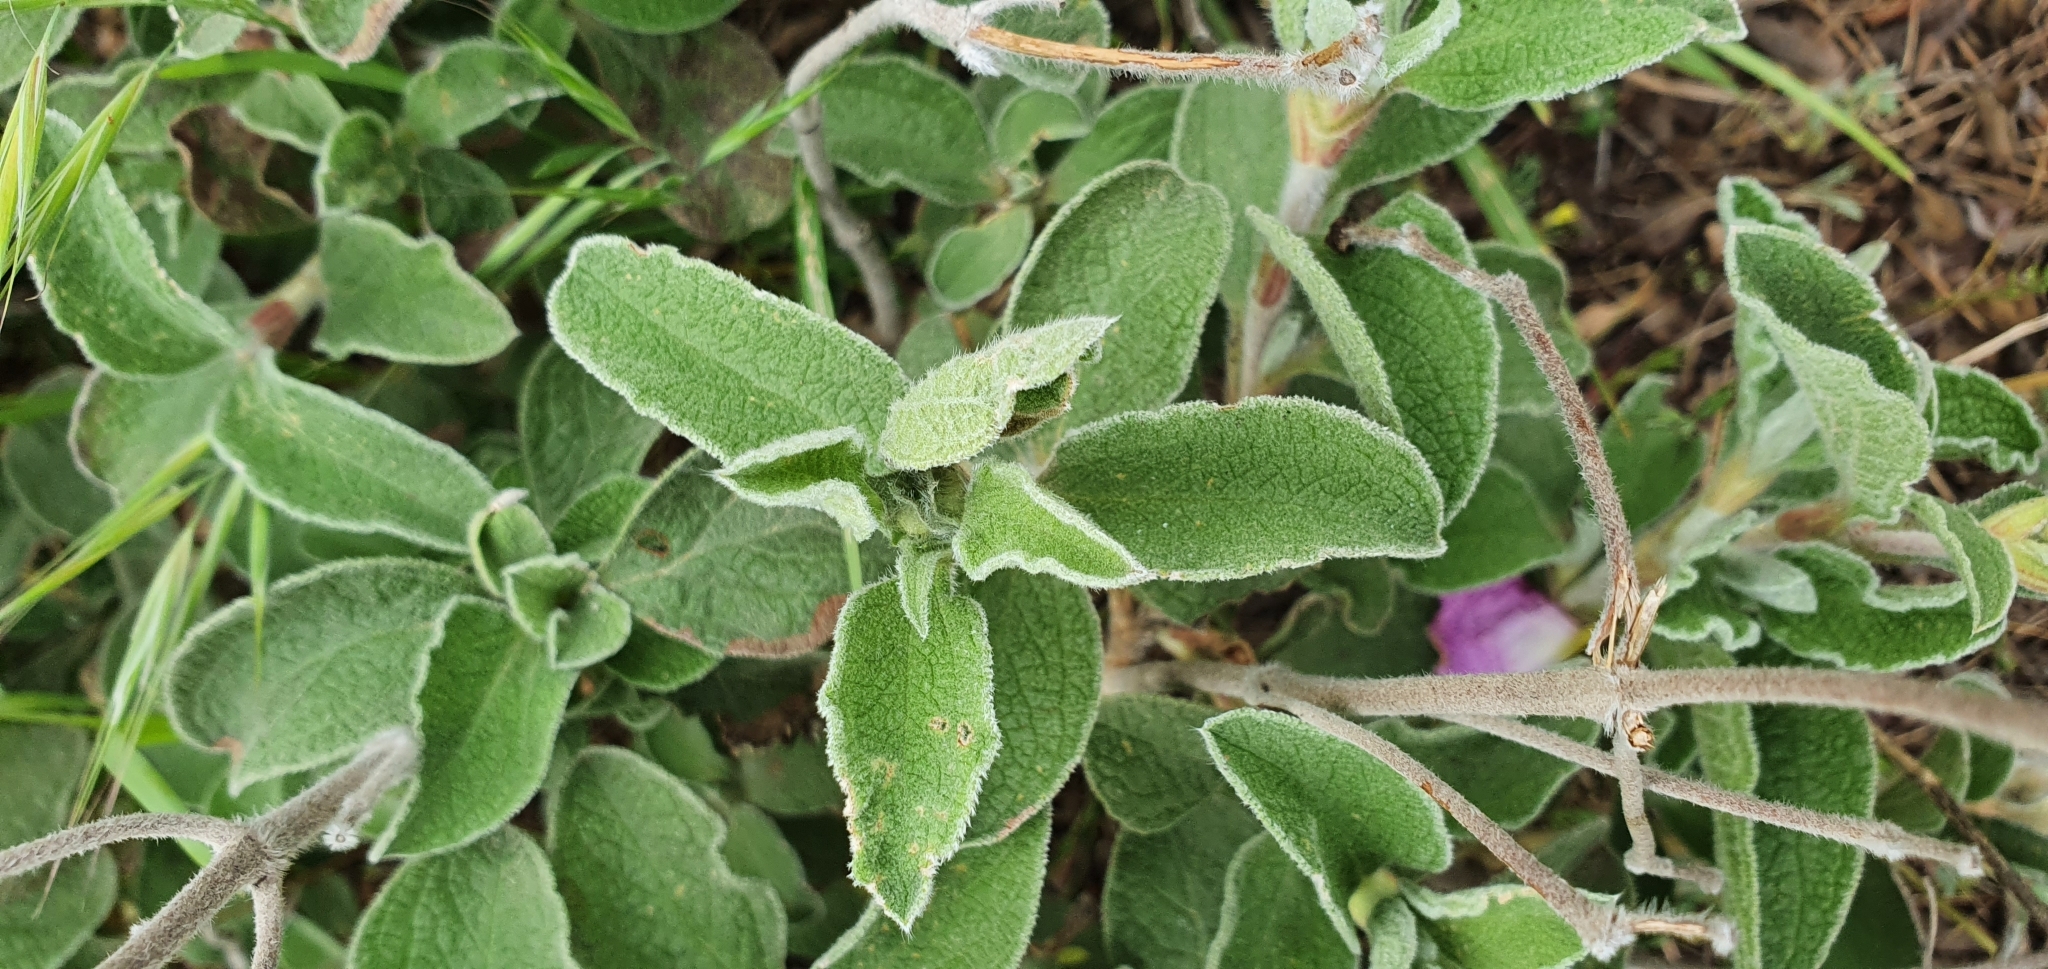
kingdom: Plantae
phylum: Tracheophyta
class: Magnoliopsida
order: Malvales
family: Cistaceae
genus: Cistus
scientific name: Cistus creticus
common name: Cretan rockrose
